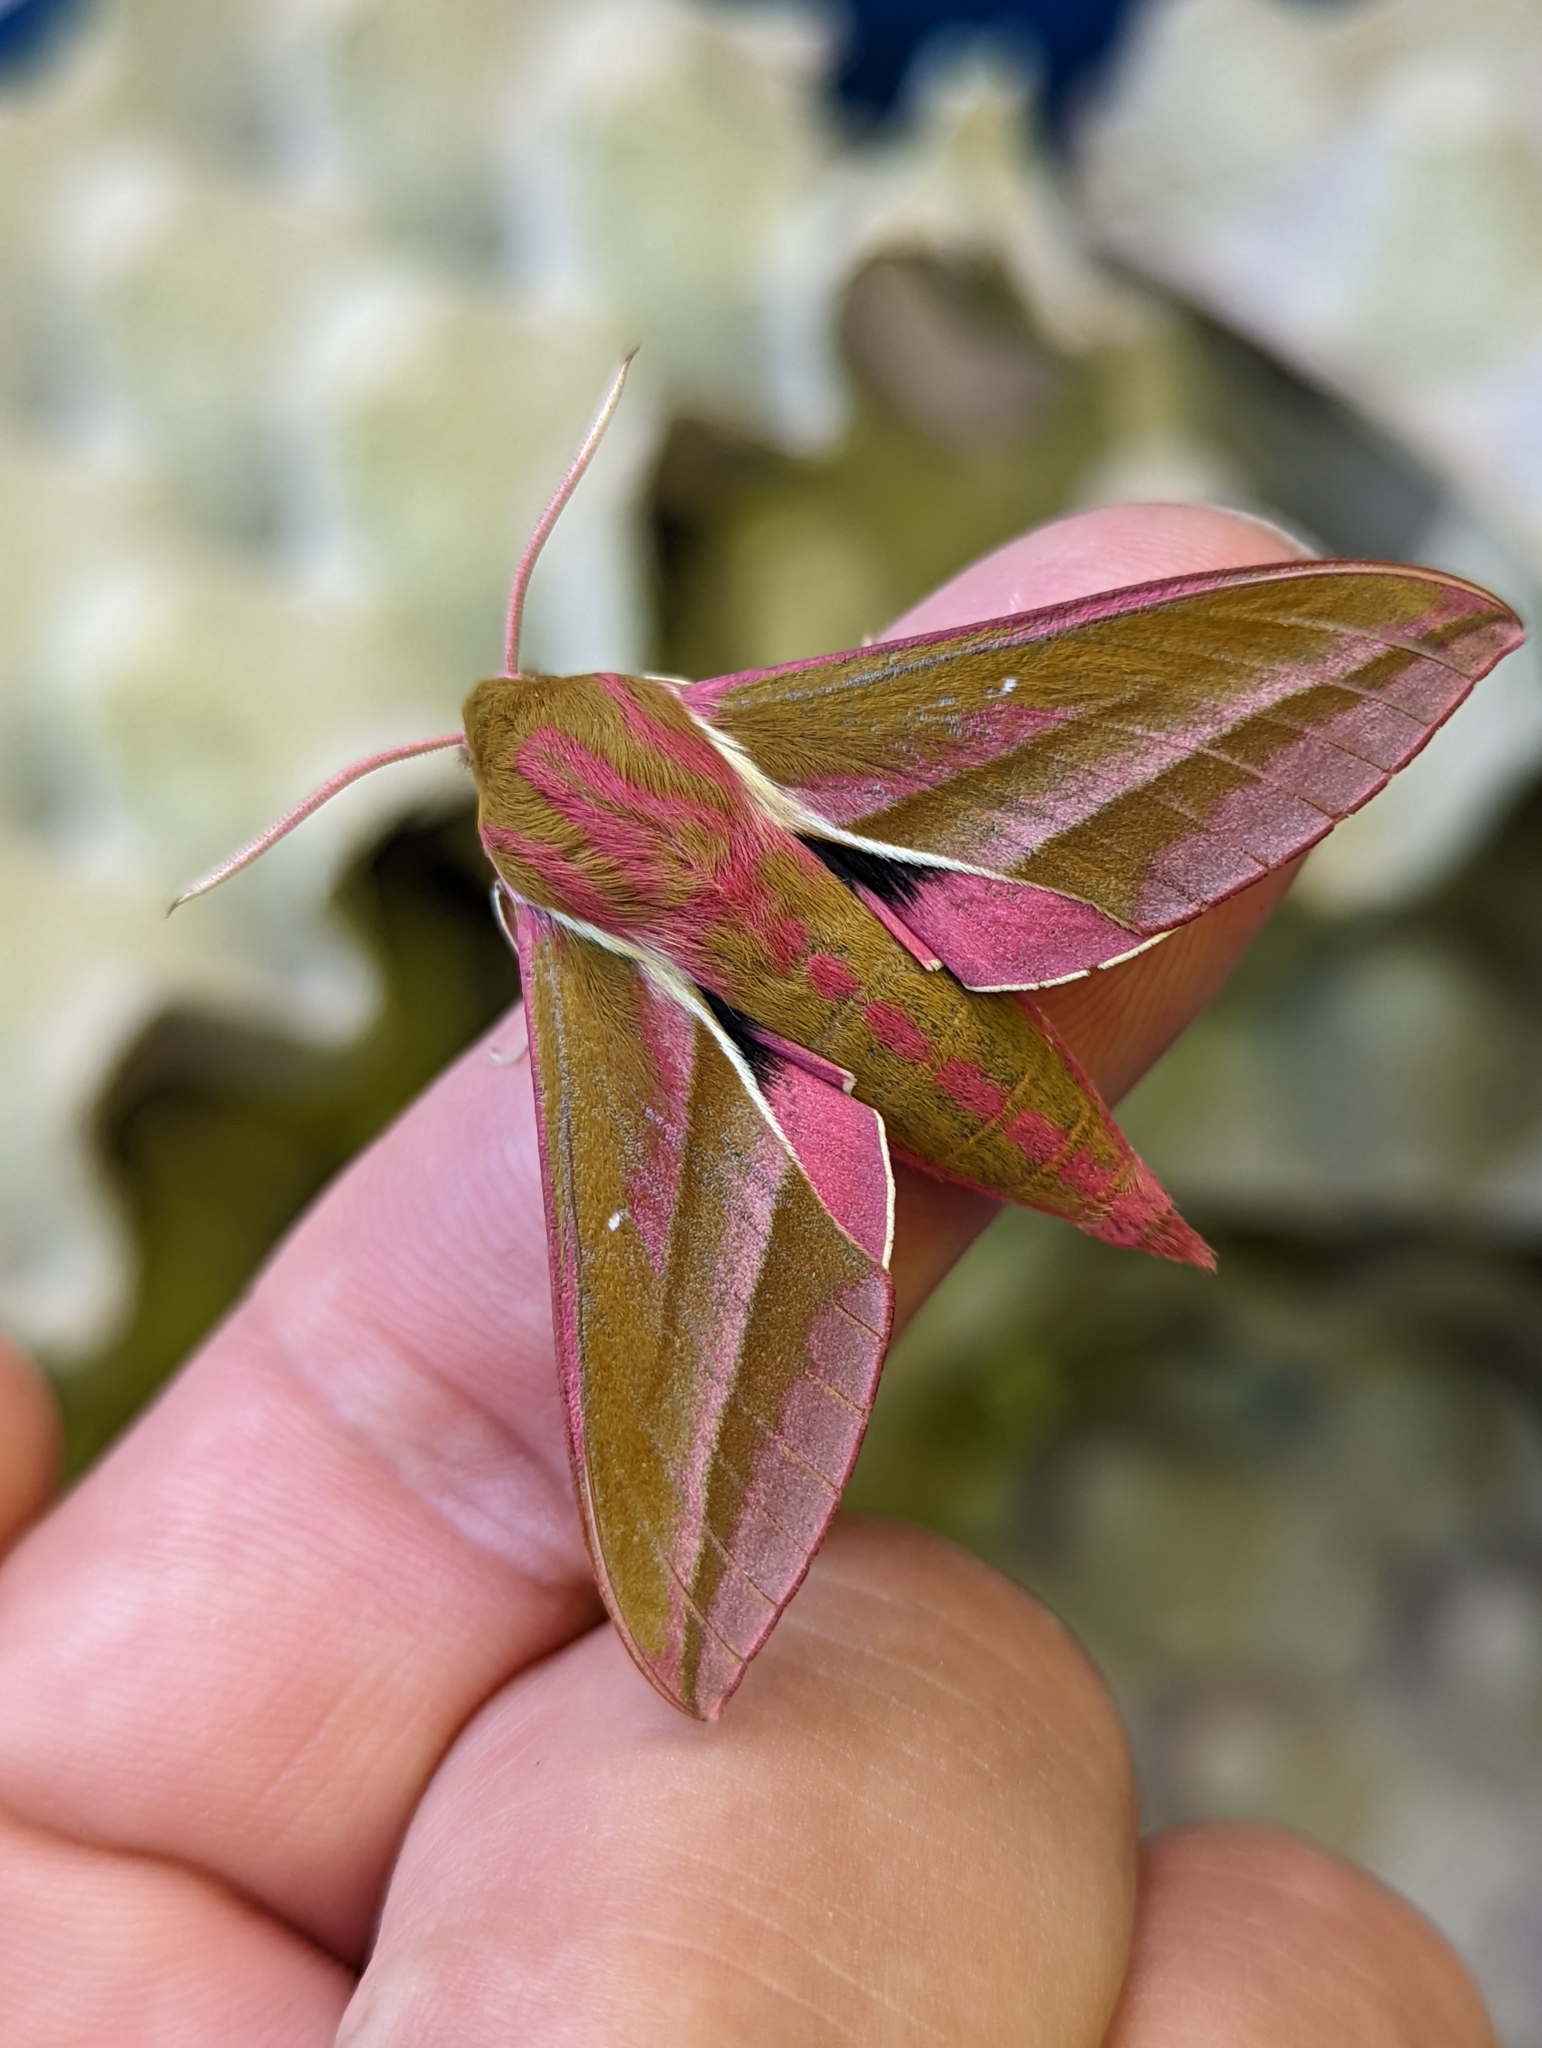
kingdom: Animalia
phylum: Arthropoda
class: Insecta
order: Lepidoptera
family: Sphingidae
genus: Deilephila
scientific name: Deilephila elpenor
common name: Elephant hawk-moth
